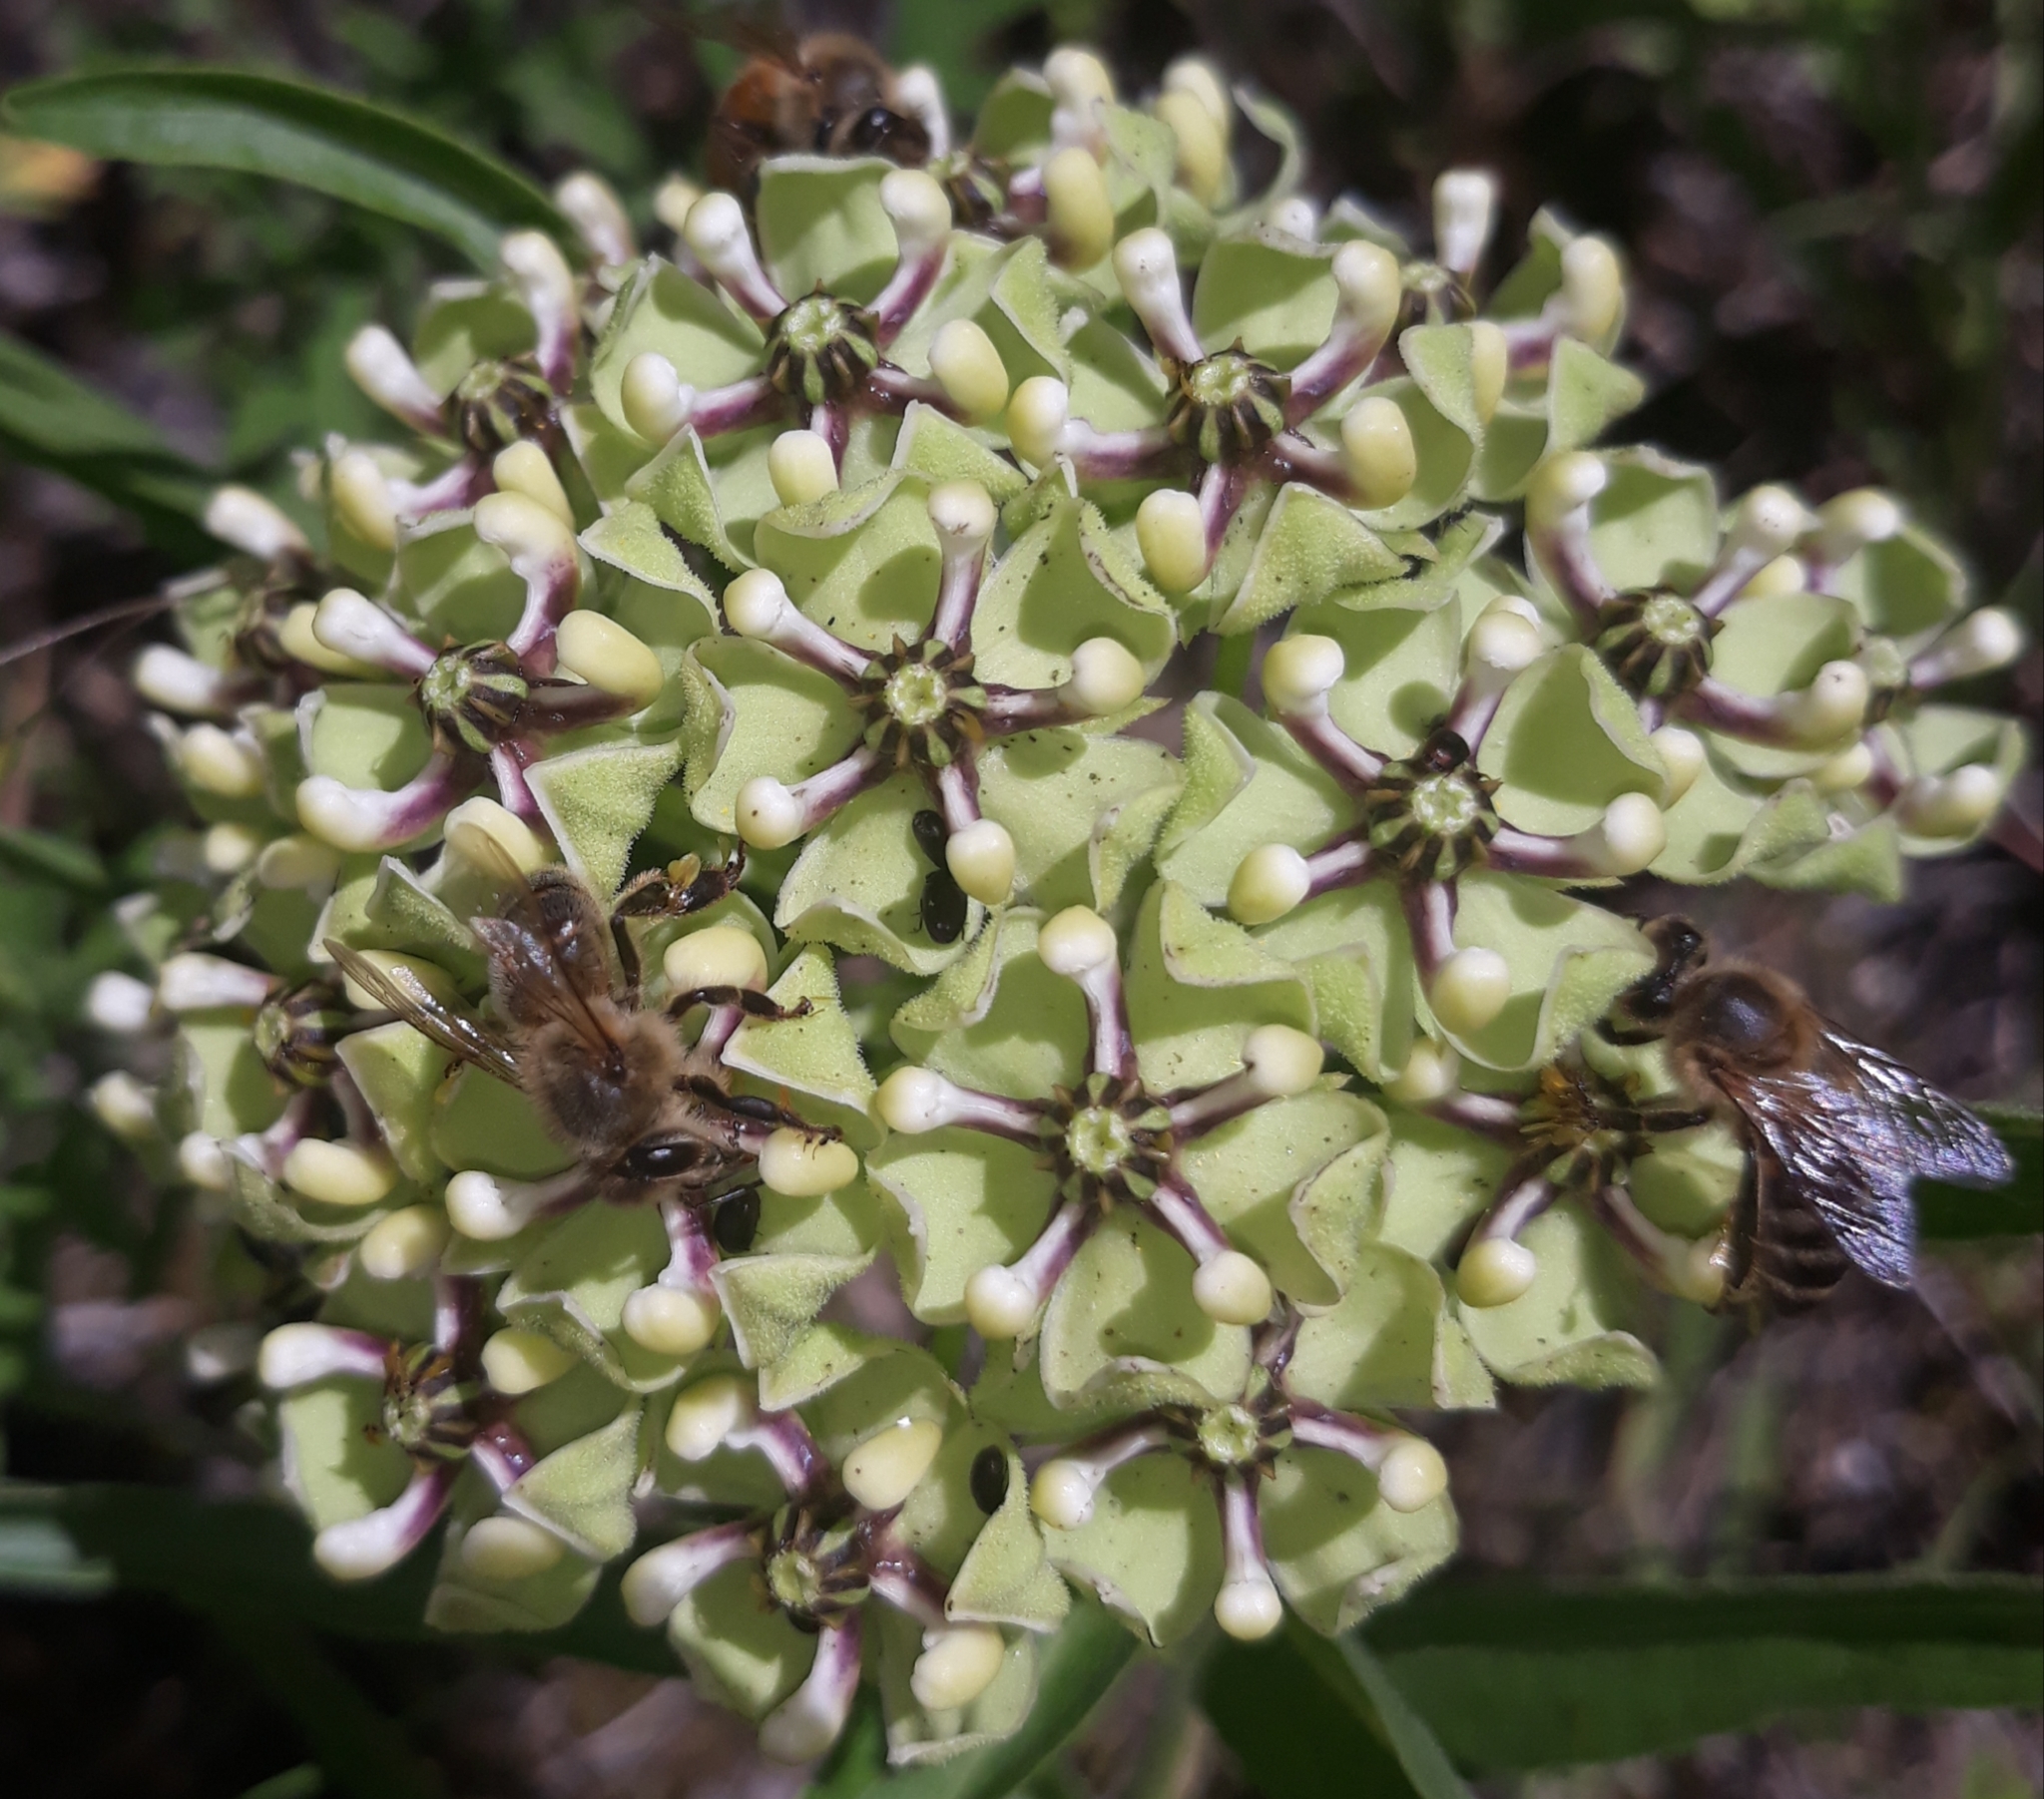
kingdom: Plantae
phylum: Tracheophyta
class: Magnoliopsida
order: Gentianales
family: Apocynaceae
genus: Asclepias
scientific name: Asclepias asperula
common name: Antelope horns
